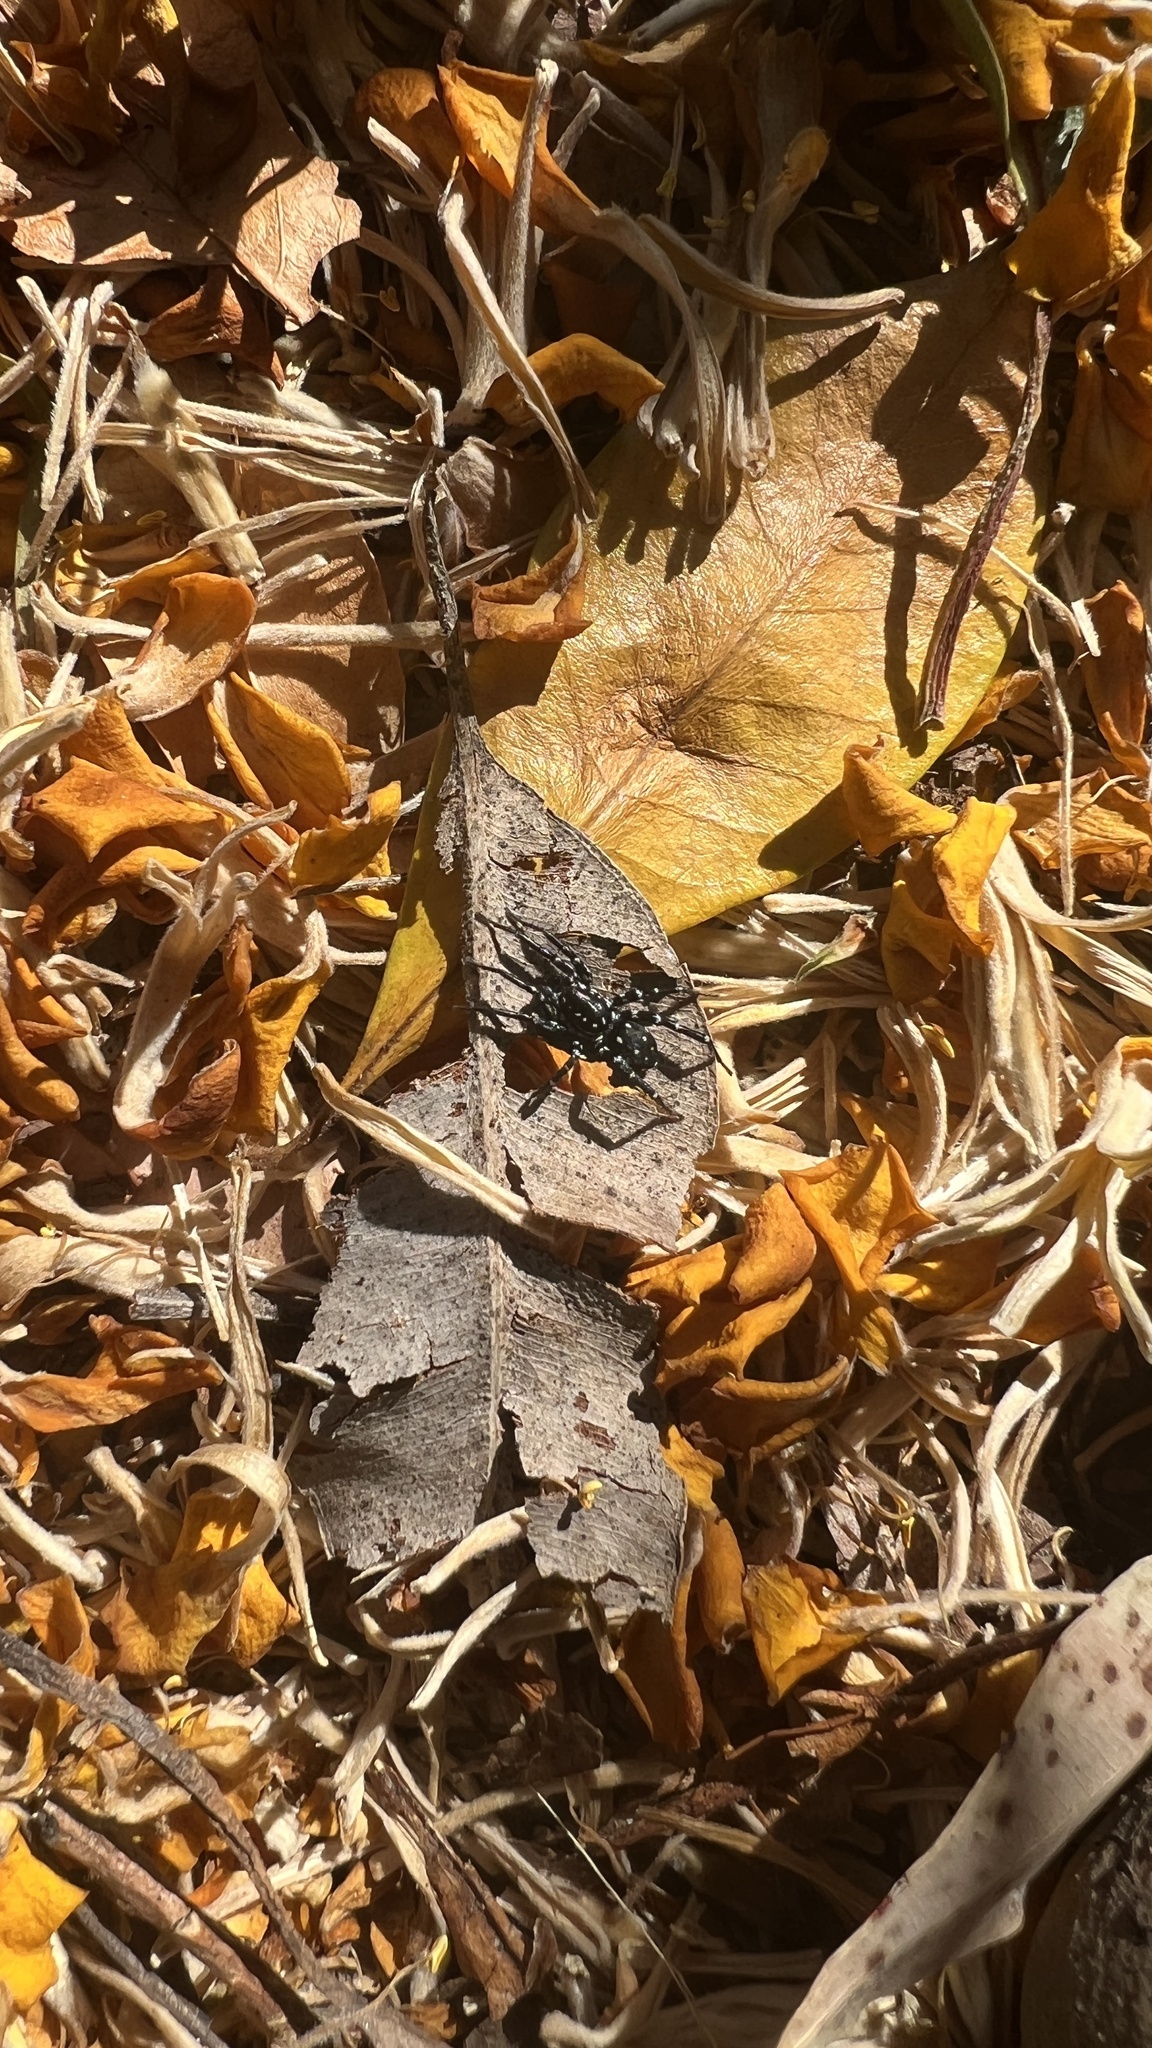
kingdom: Animalia
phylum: Arthropoda
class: Arachnida
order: Araneae
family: Corinnidae
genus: Nyssus
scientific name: Nyssus albopunctatus
